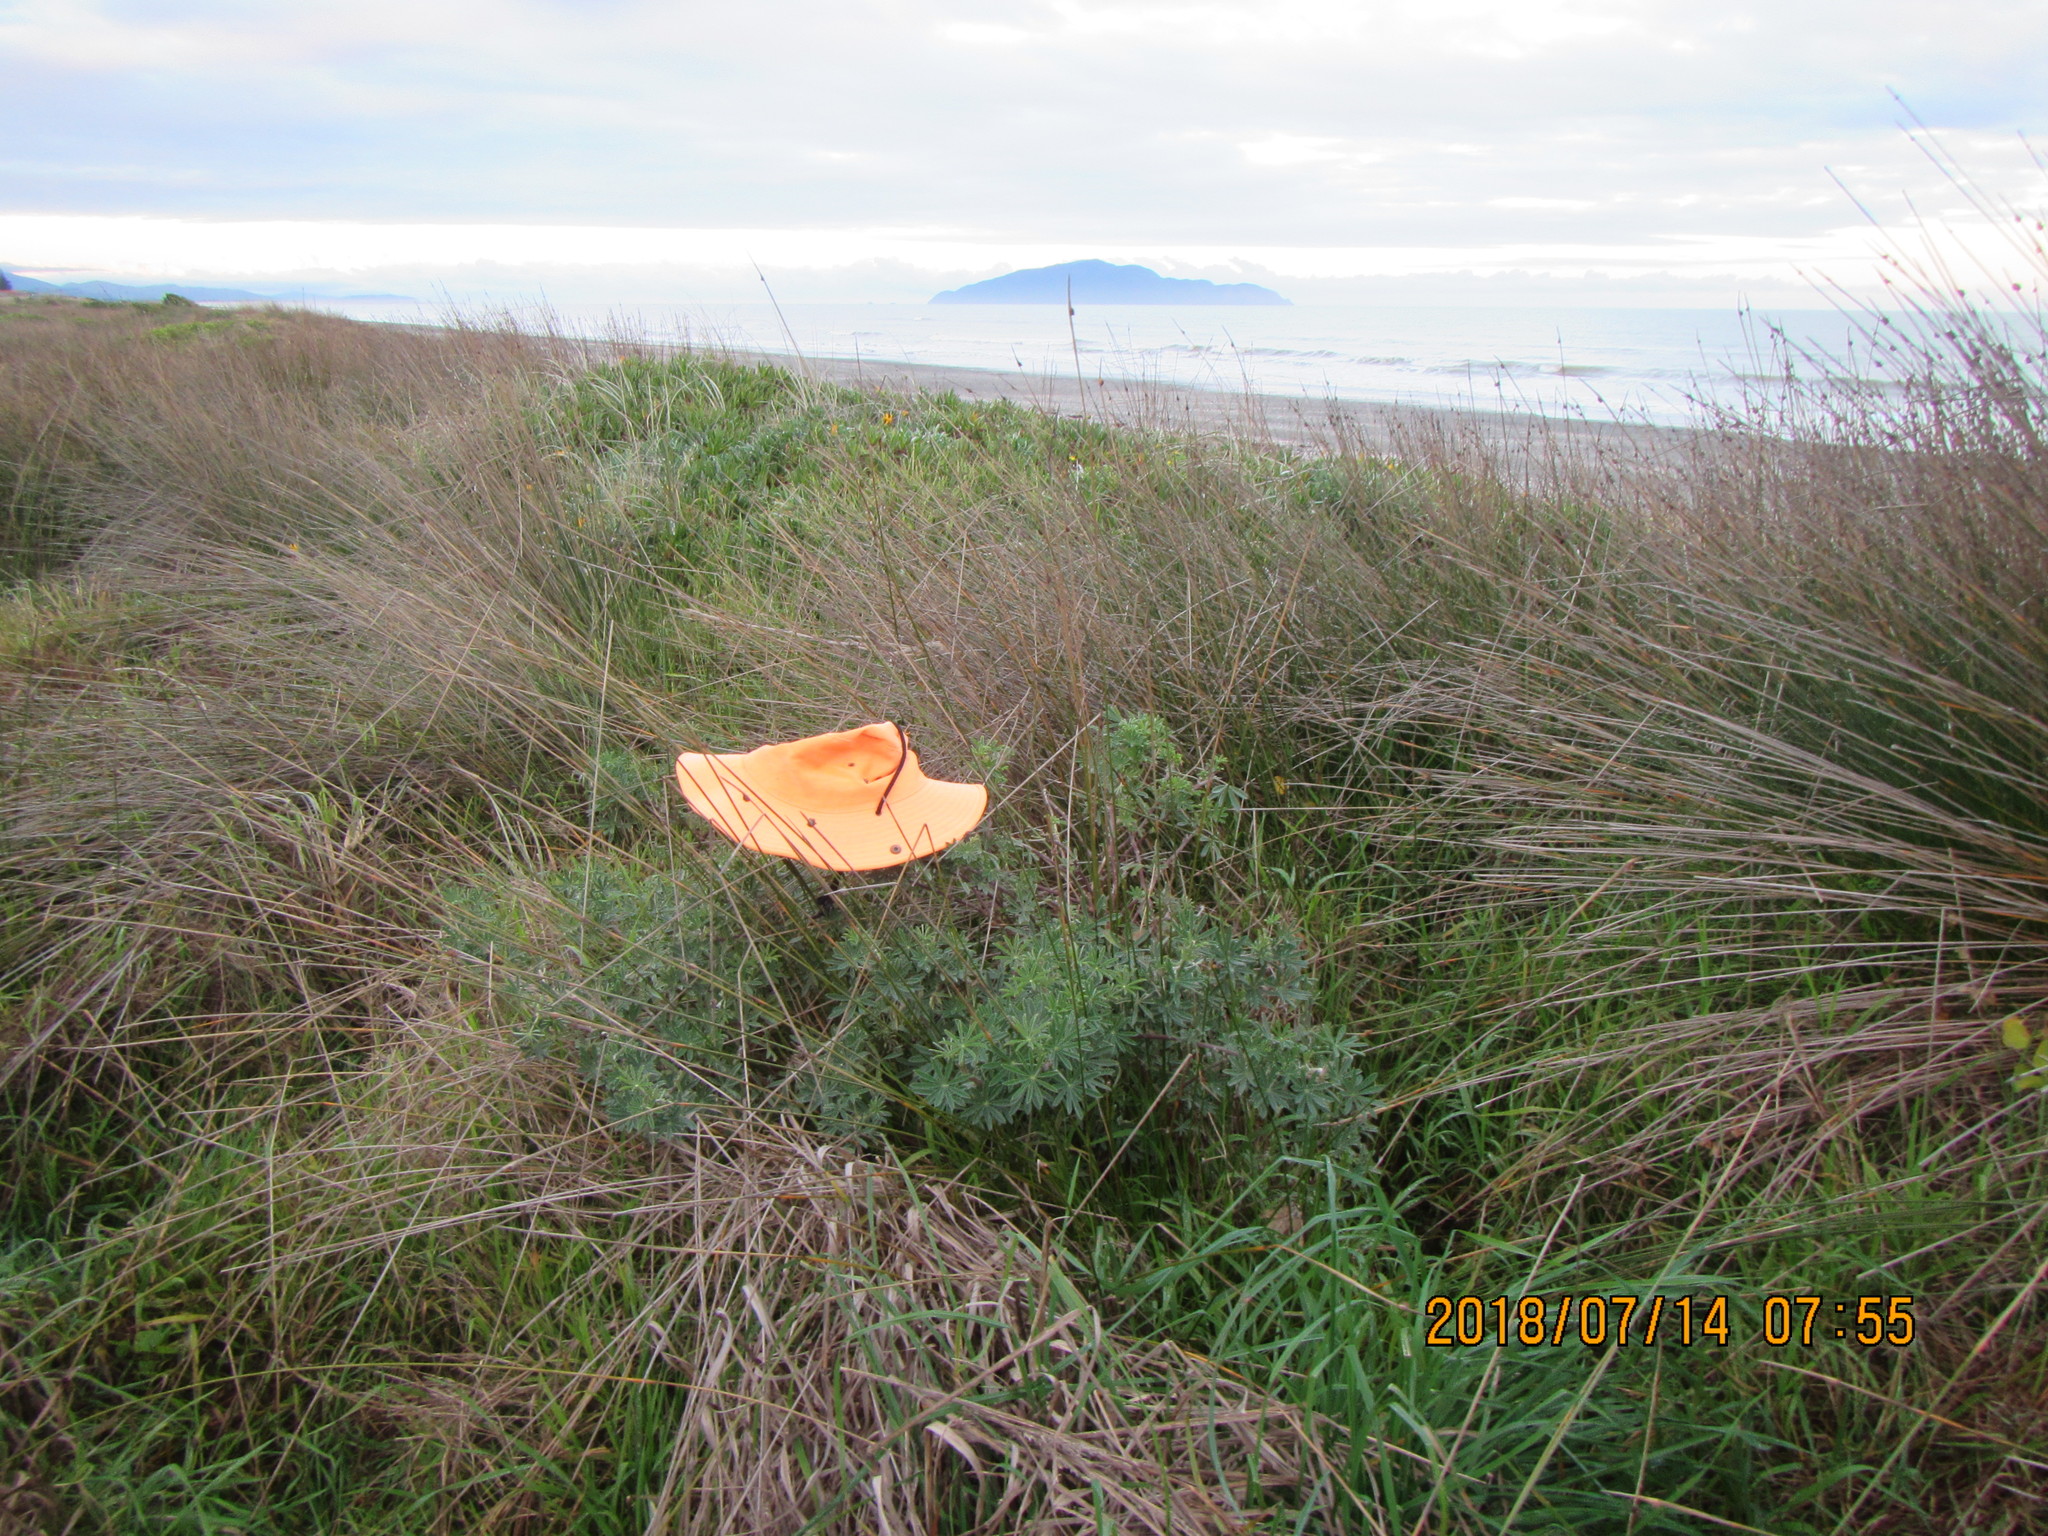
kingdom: Plantae
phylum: Tracheophyta
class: Magnoliopsida
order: Fabales
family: Fabaceae
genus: Lupinus
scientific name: Lupinus arboreus
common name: Yellow bush lupine
